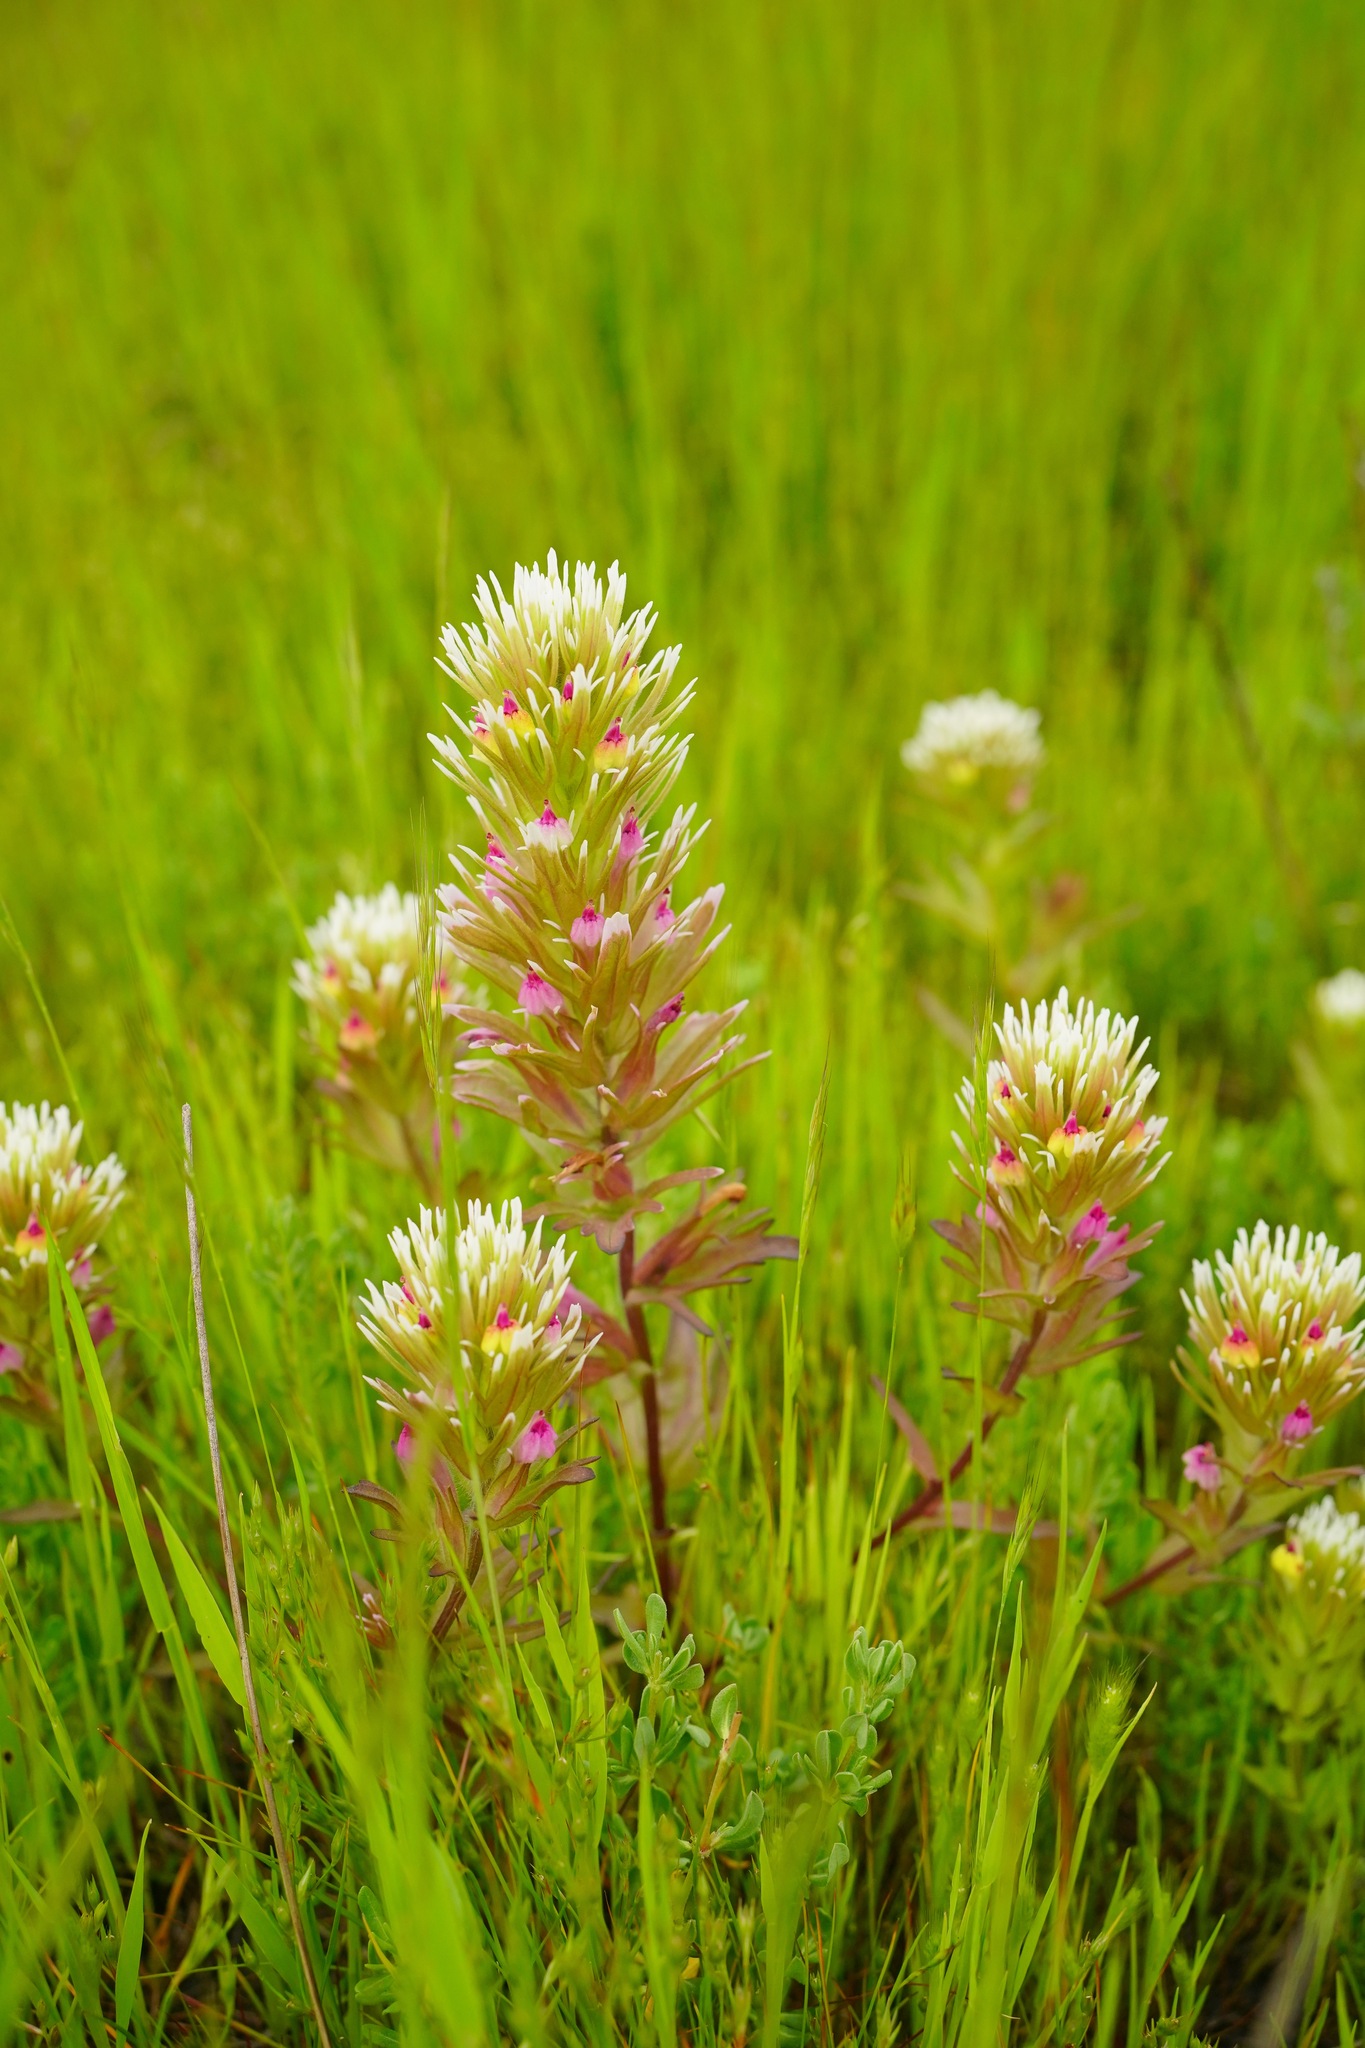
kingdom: Plantae
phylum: Tracheophyta
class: Magnoliopsida
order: Lamiales
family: Orobanchaceae
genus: Castilleja
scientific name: Castilleja ambigua
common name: Johnny-nip
